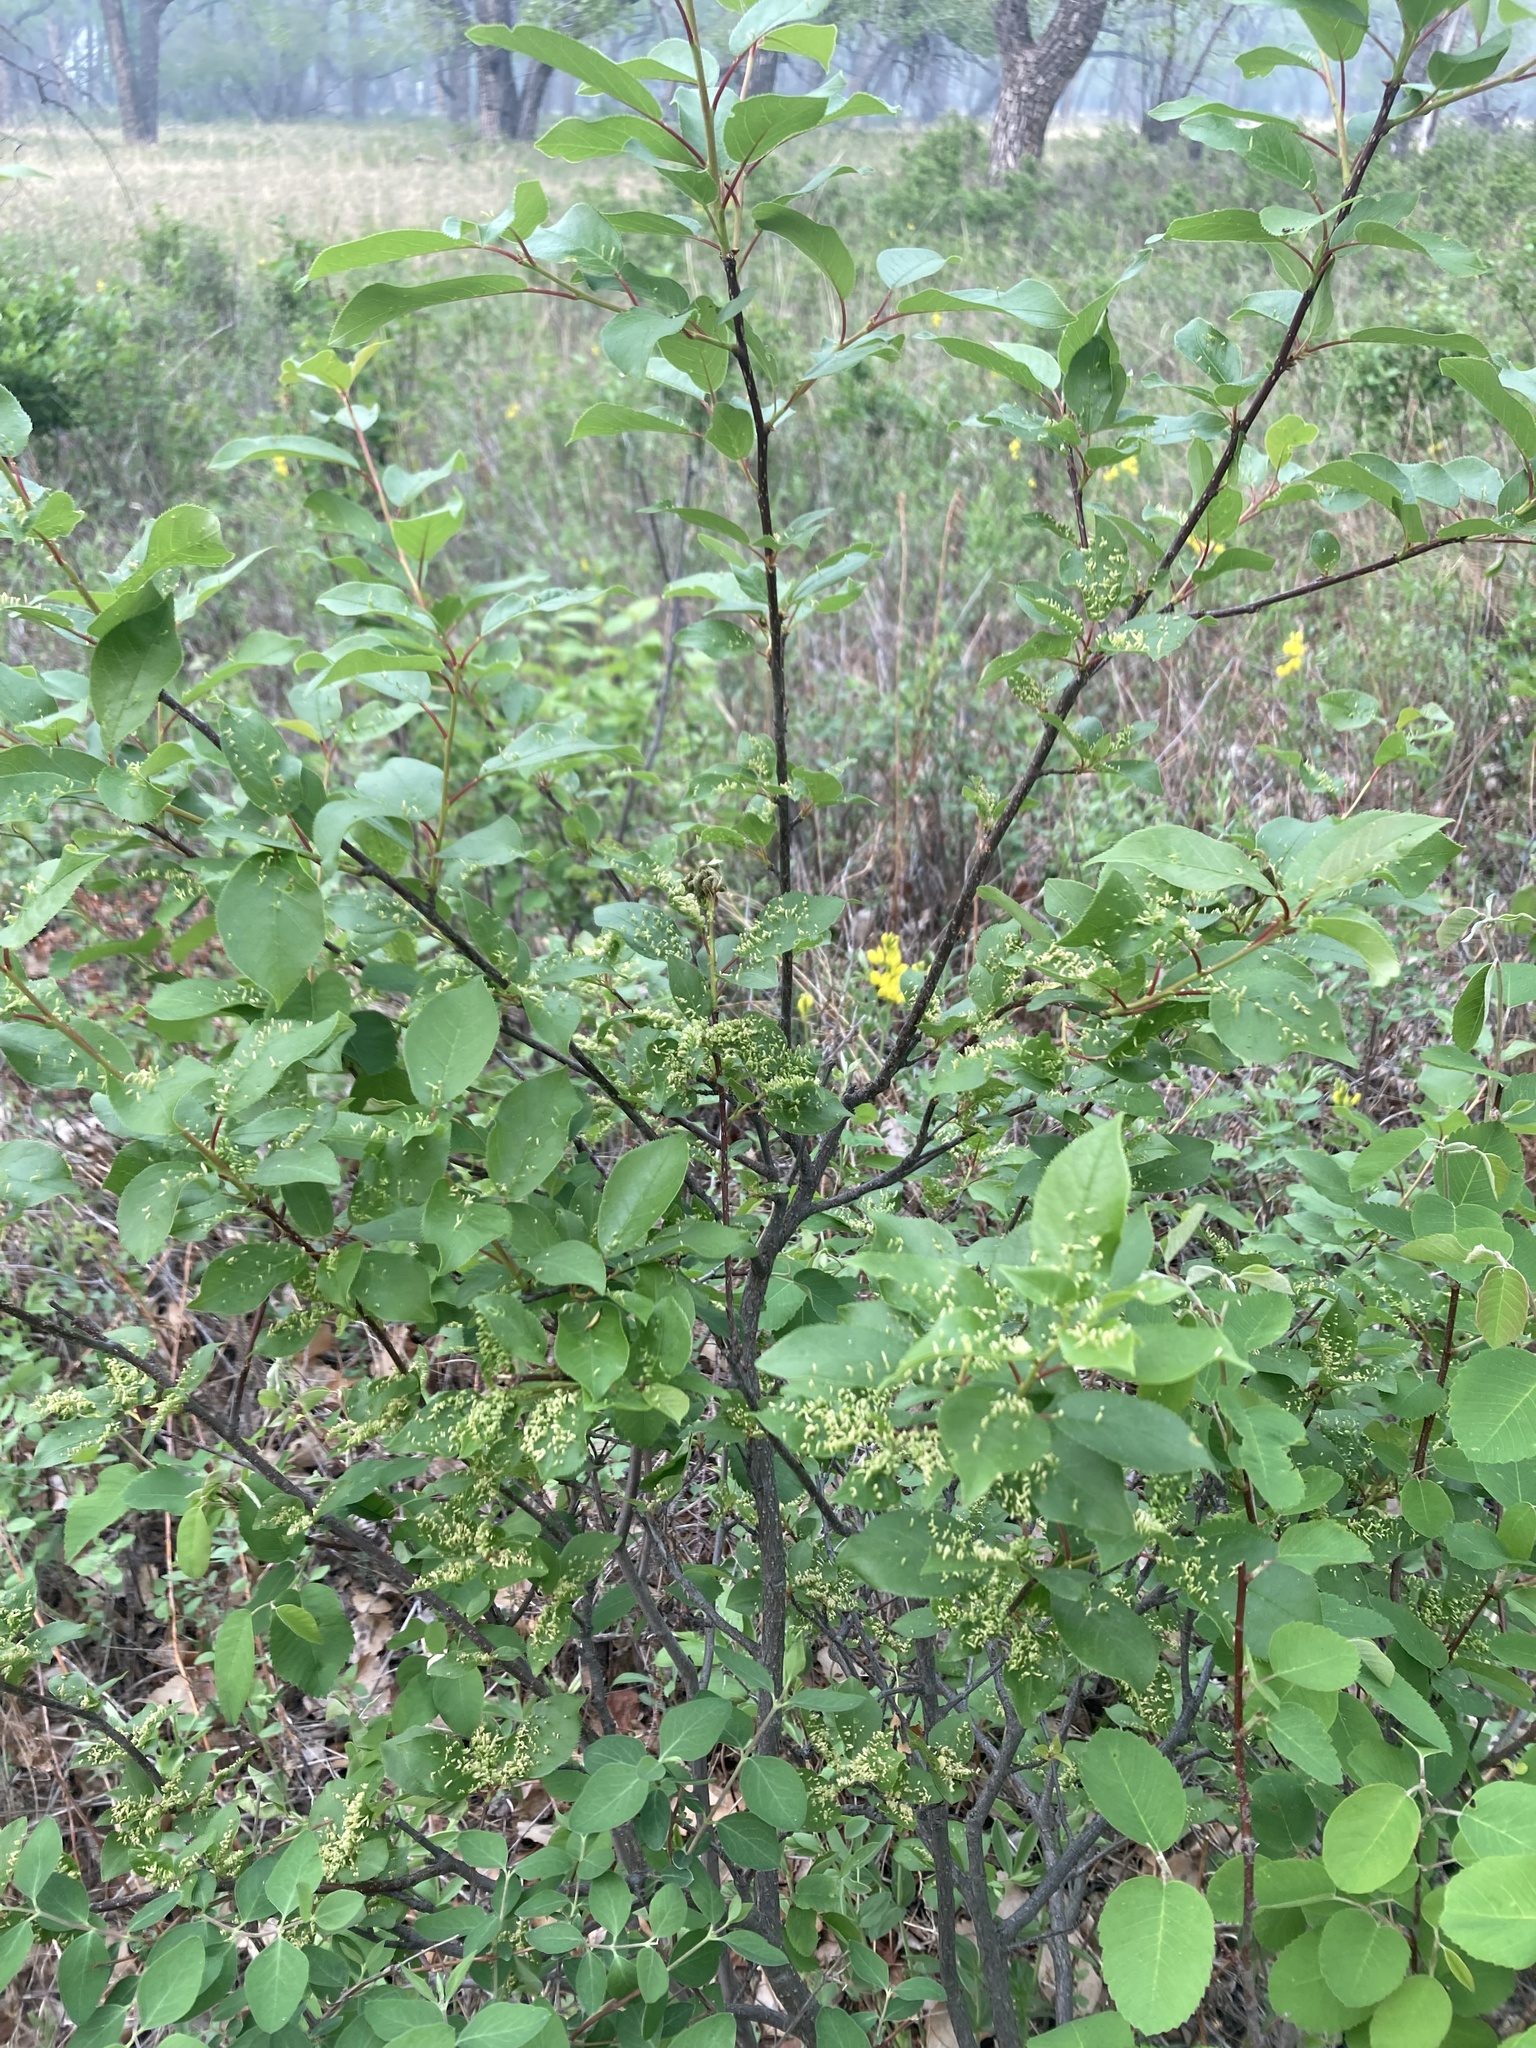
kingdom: Animalia
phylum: Arthropoda
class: Arachnida
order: Trombidiformes
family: Eriophyidae
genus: Eriophyes
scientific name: Eriophyes emarginatae
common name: Plum leaf gall mite
